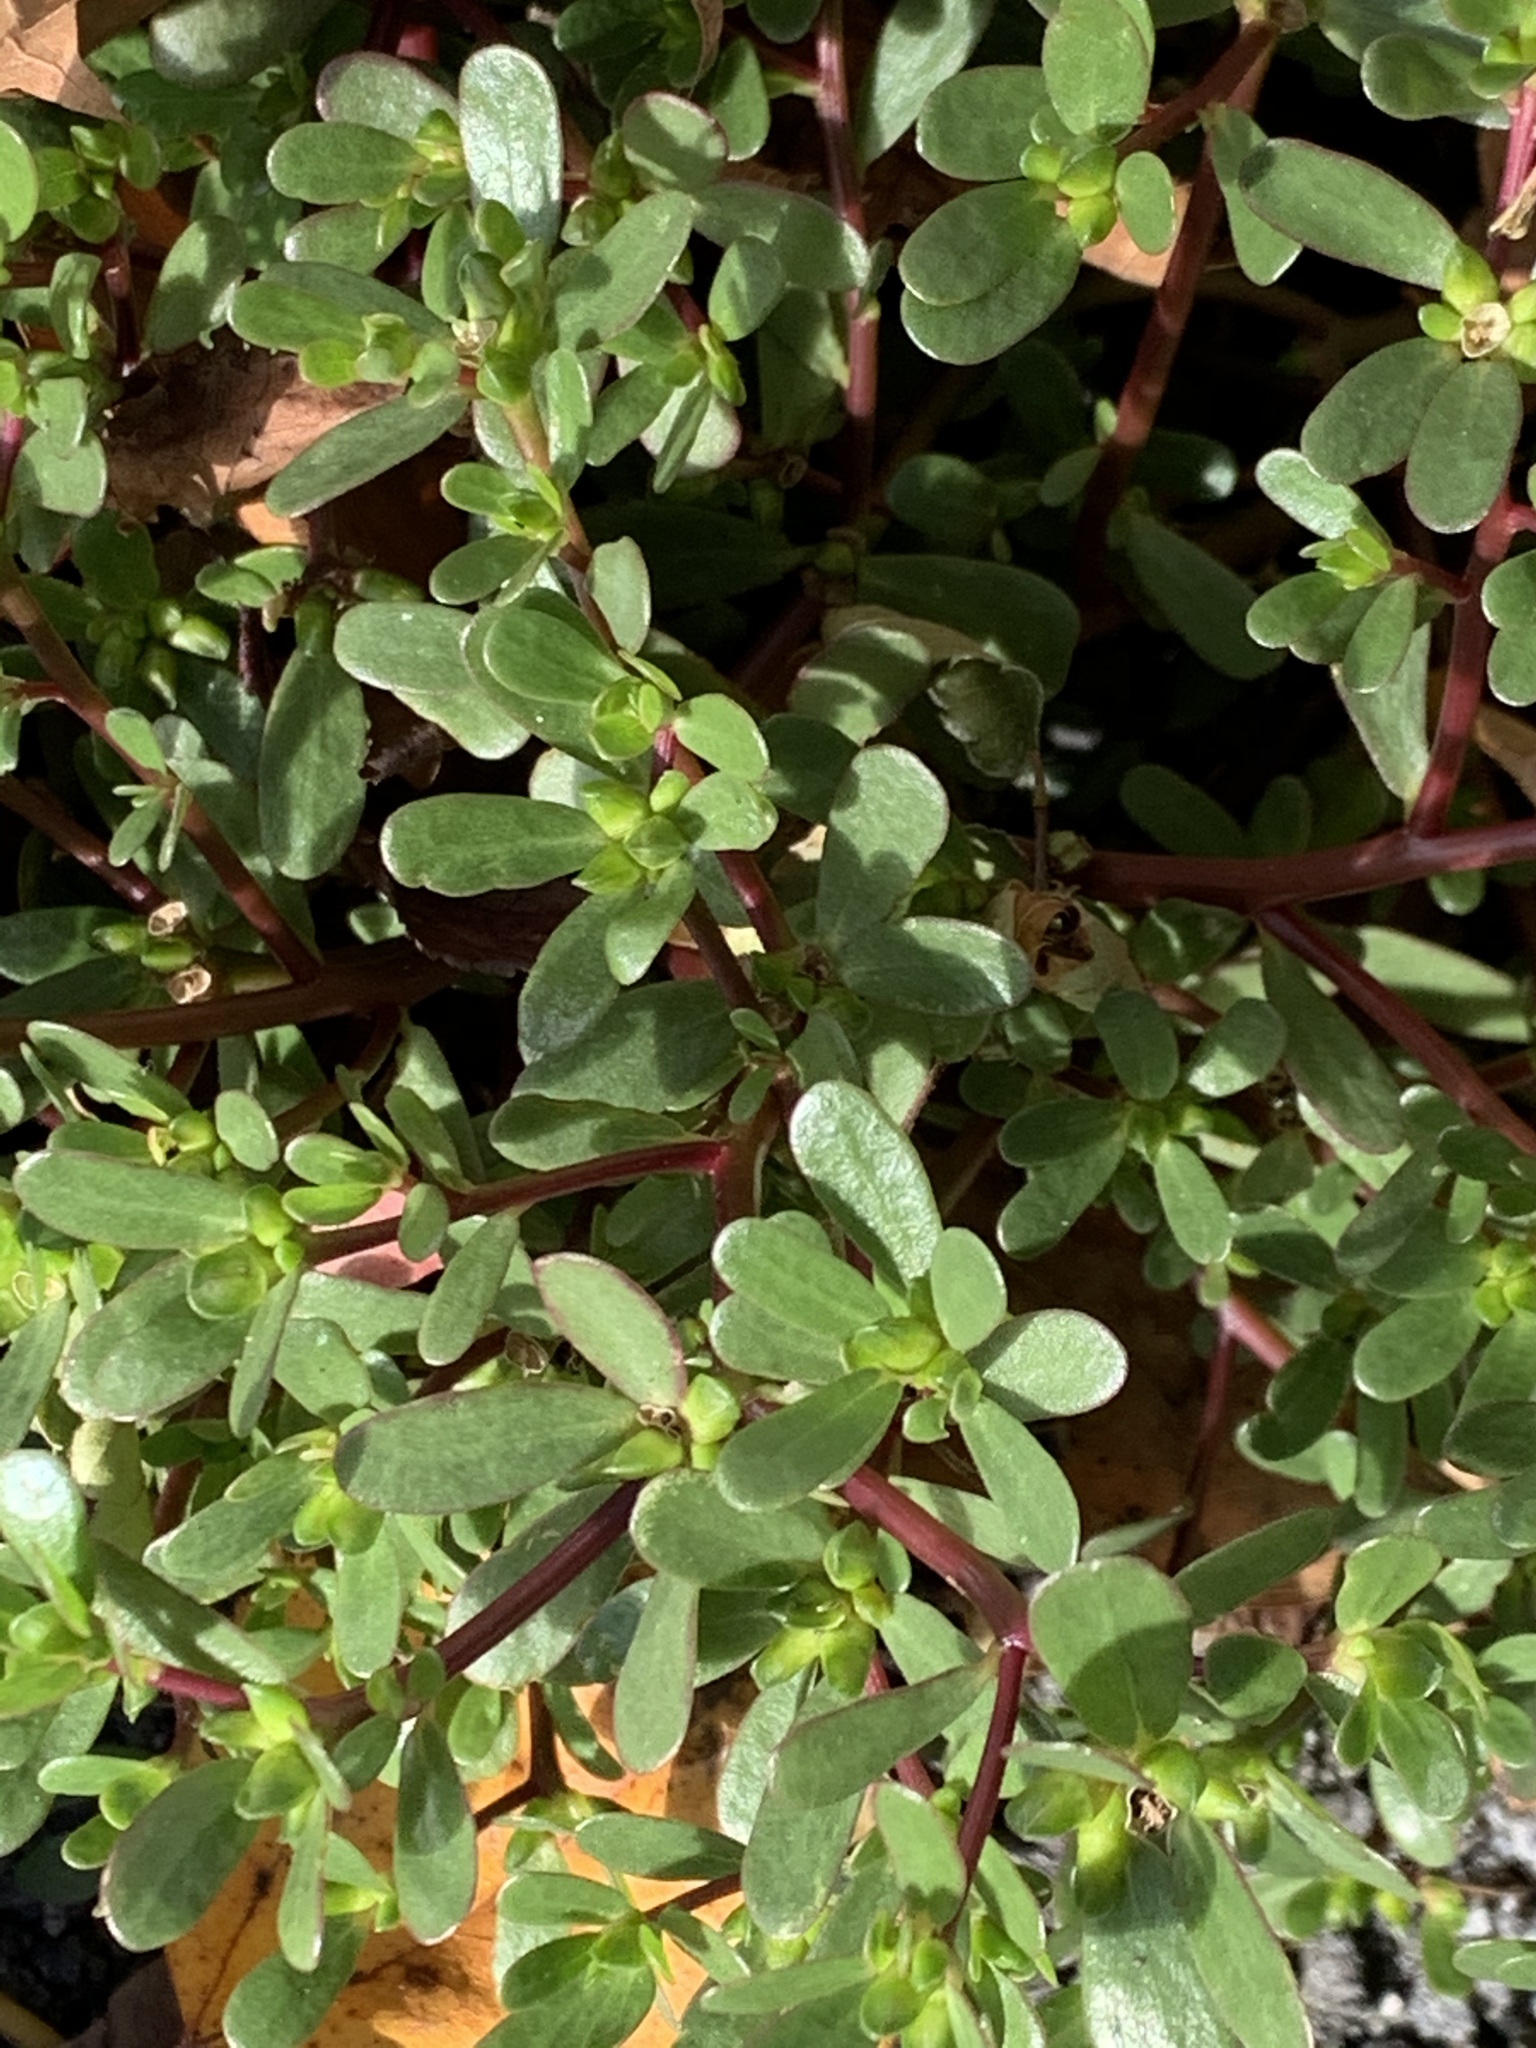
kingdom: Plantae
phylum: Tracheophyta
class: Magnoliopsida
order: Caryophyllales
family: Portulacaceae
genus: Portulaca
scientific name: Portulaca oleracea
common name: Common purslane
